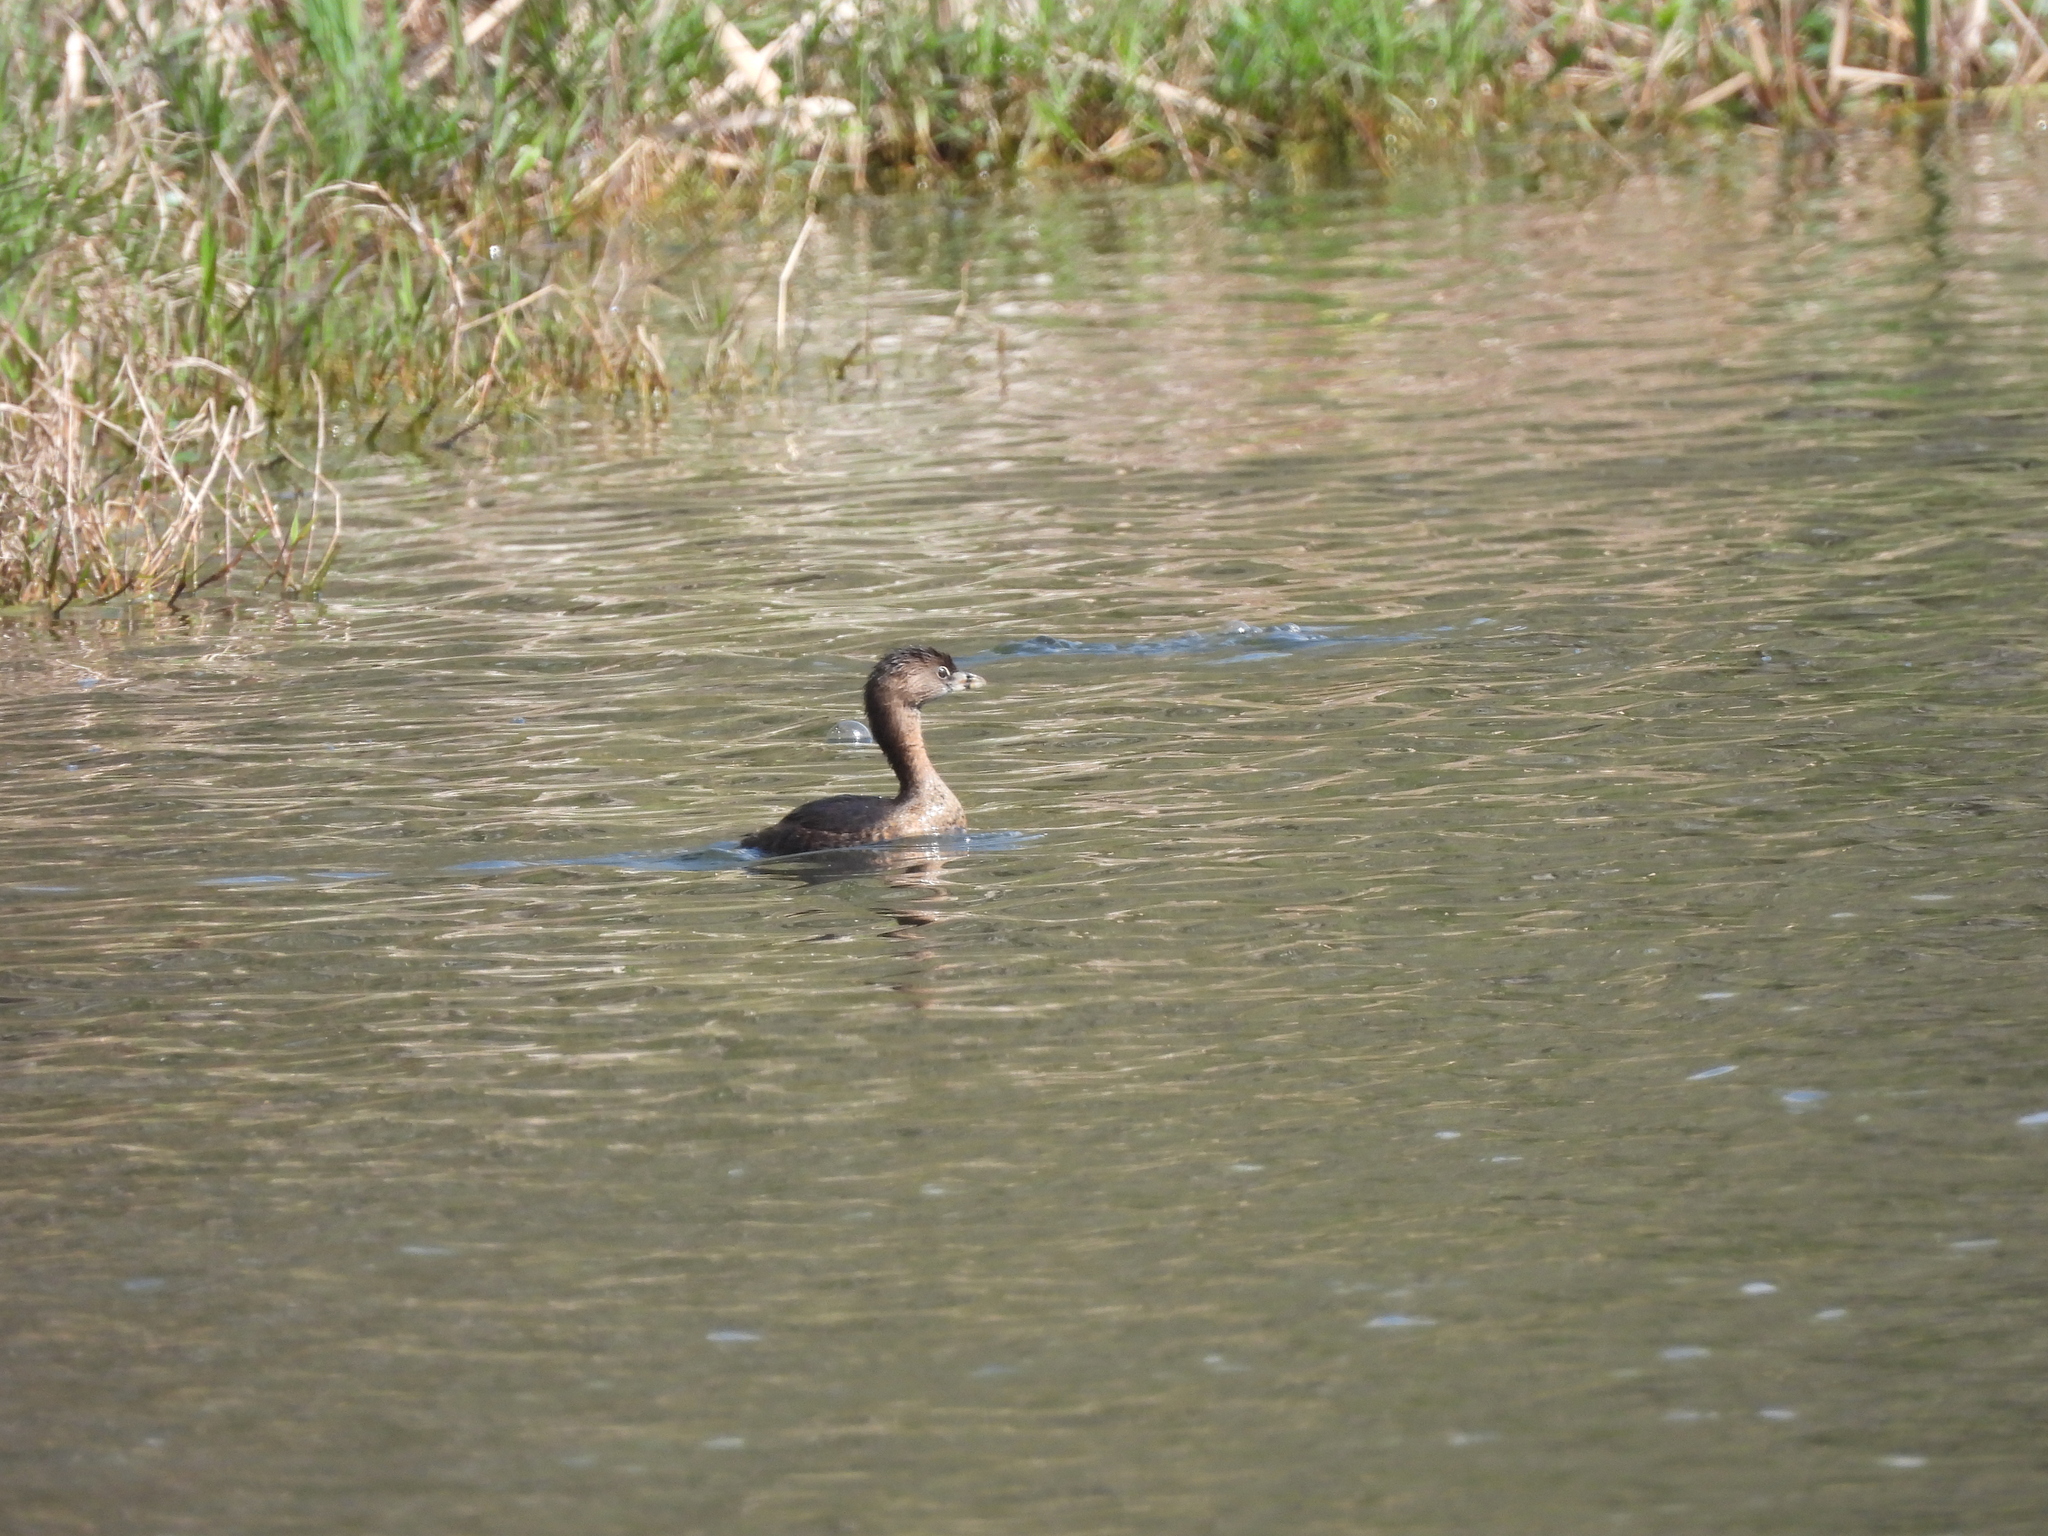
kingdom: Animalia
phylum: Chordata
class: Aves
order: Podicipediformes
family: Podicipedidae
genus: Podilymbus
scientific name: Podilymbus podiceps
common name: Pied-billed grebe
